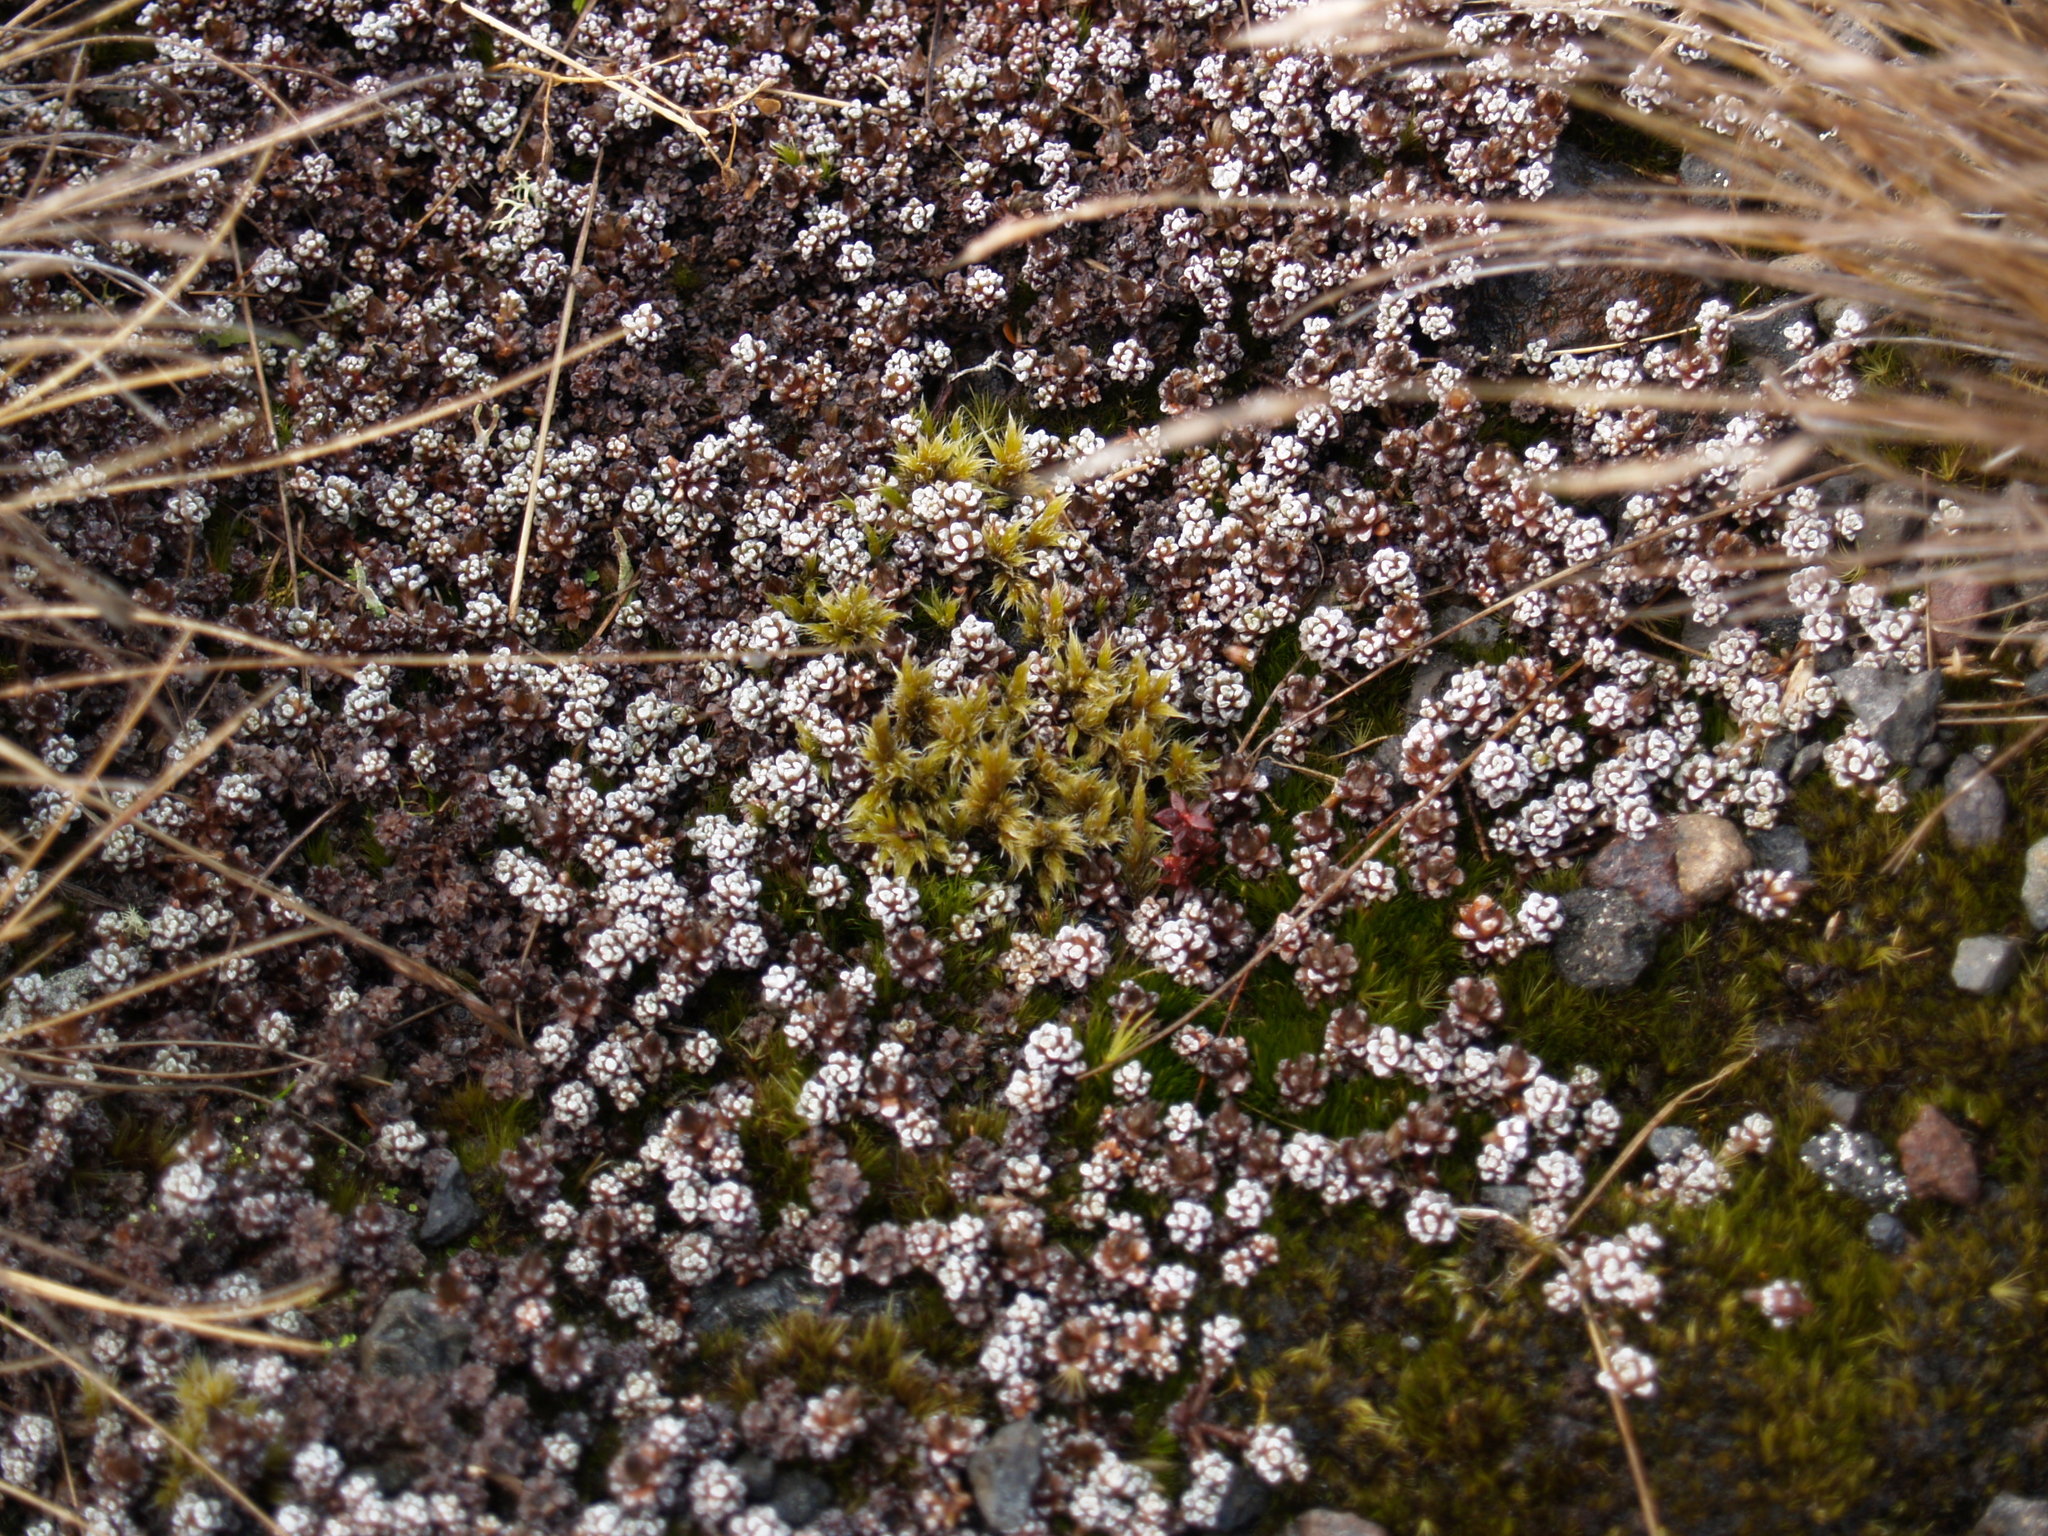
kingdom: Plantae
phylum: Tracheophyta
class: Magnoliopsida
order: Asterales
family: Asteraceae
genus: Raoulia
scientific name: Raoulia albosericea
